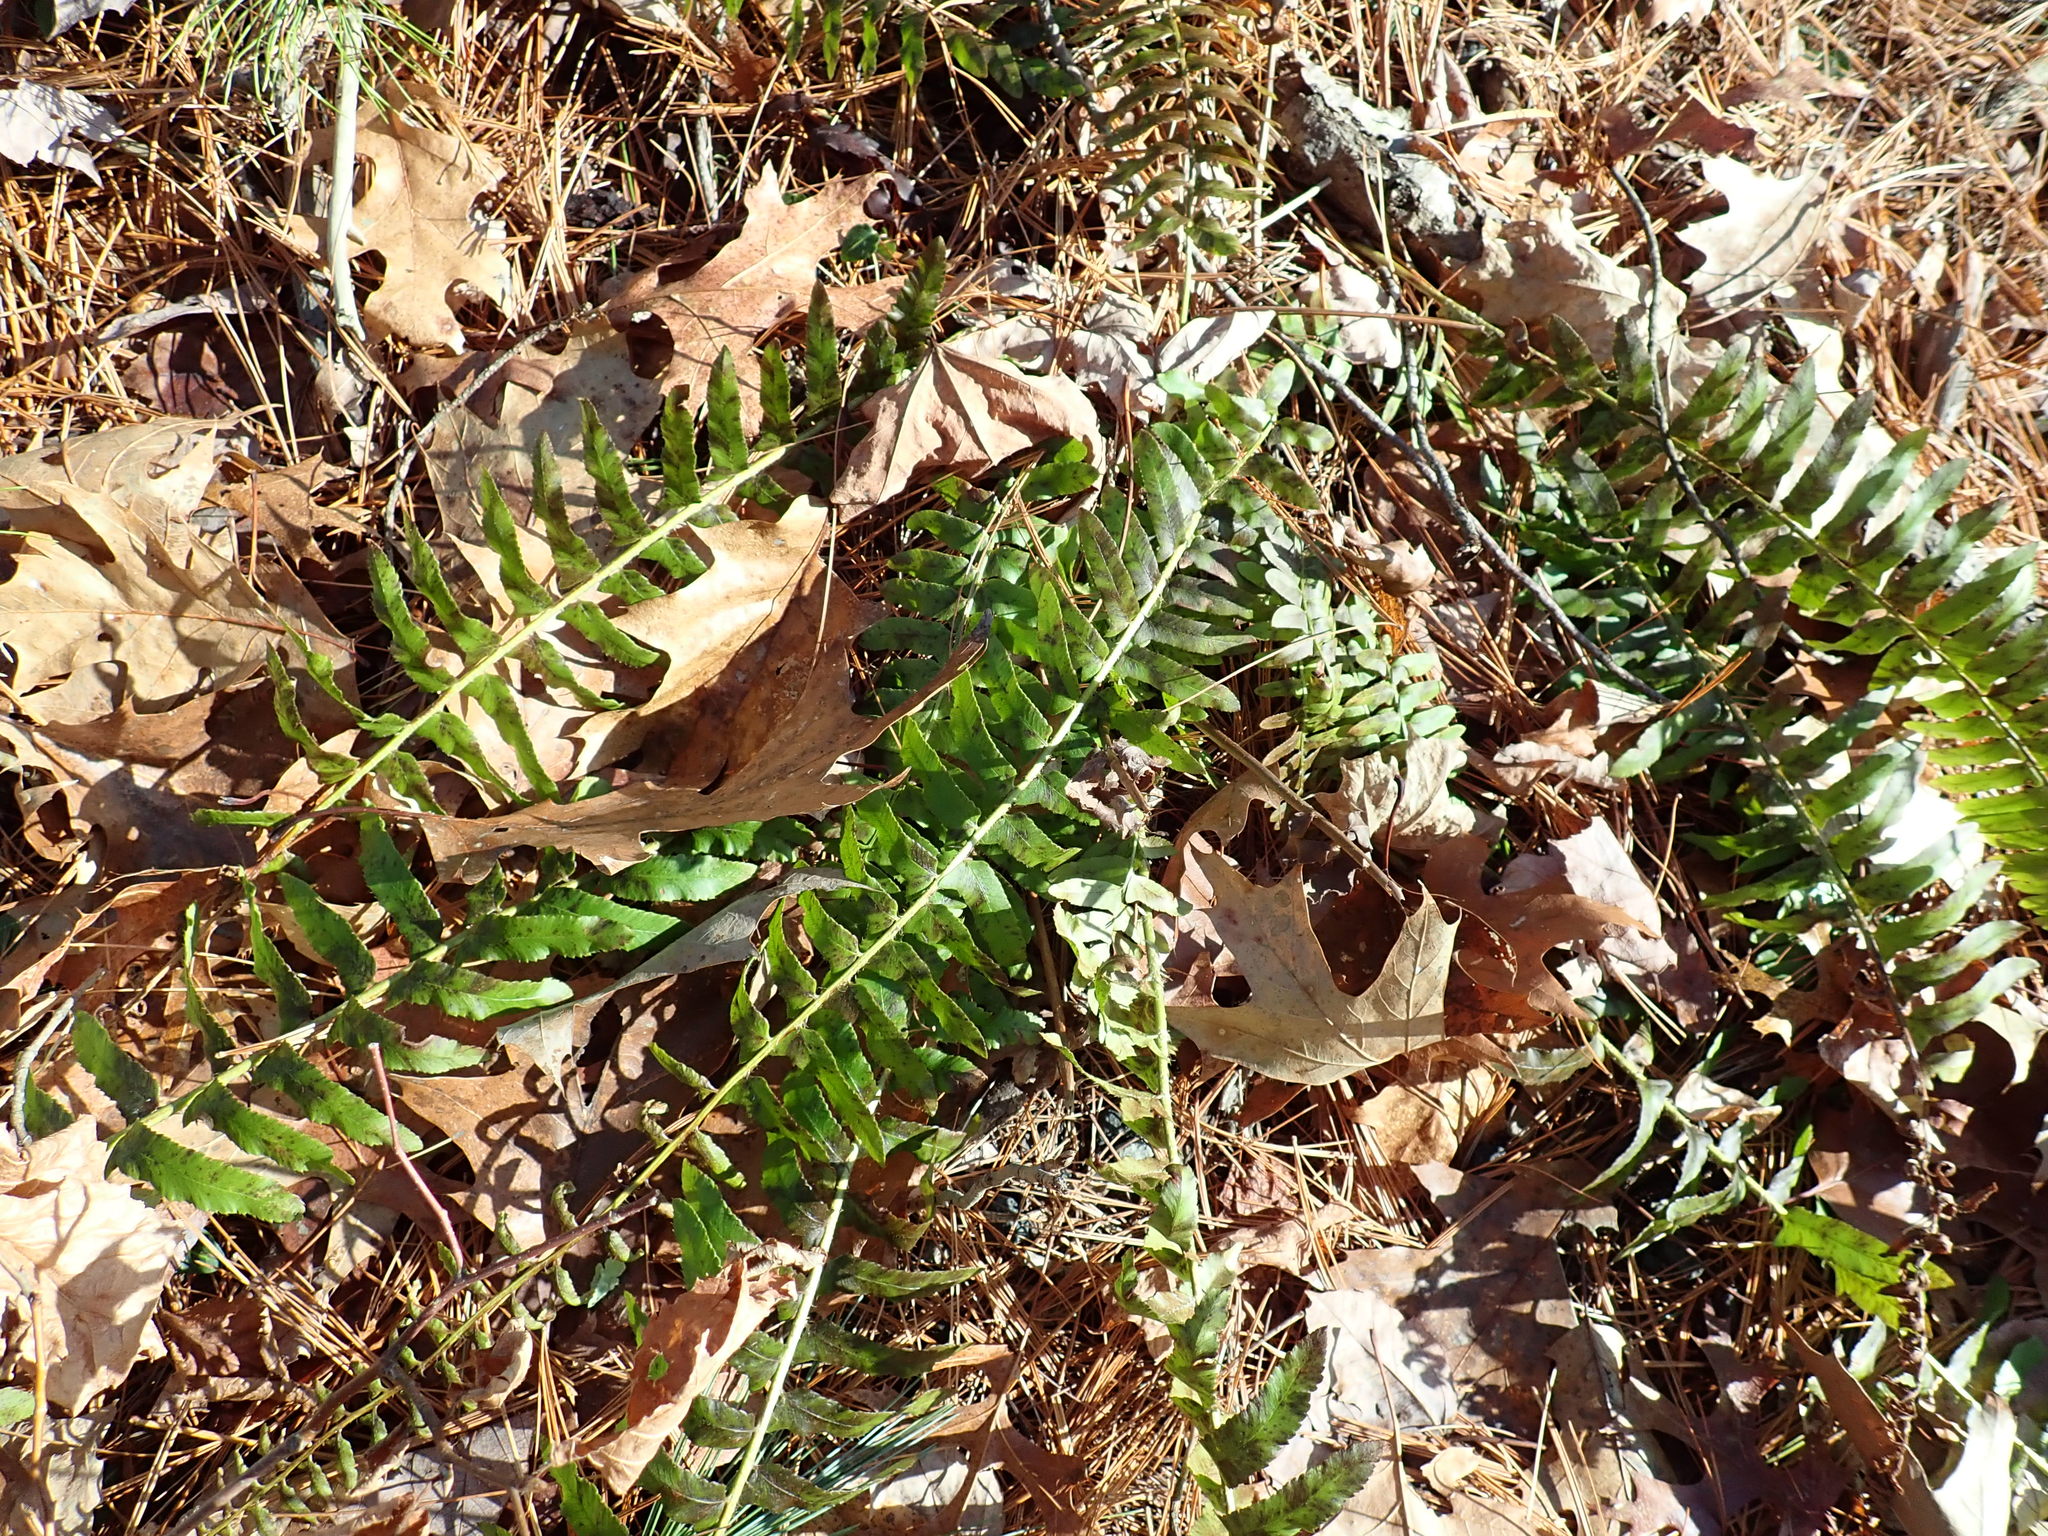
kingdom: Plantae
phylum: Tracheophyta
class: Polypodiopsida
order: Polypodiales
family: Dryopteridaceae
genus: Polystichum
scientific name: Polystichum acrostichoides
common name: Christmas fern
